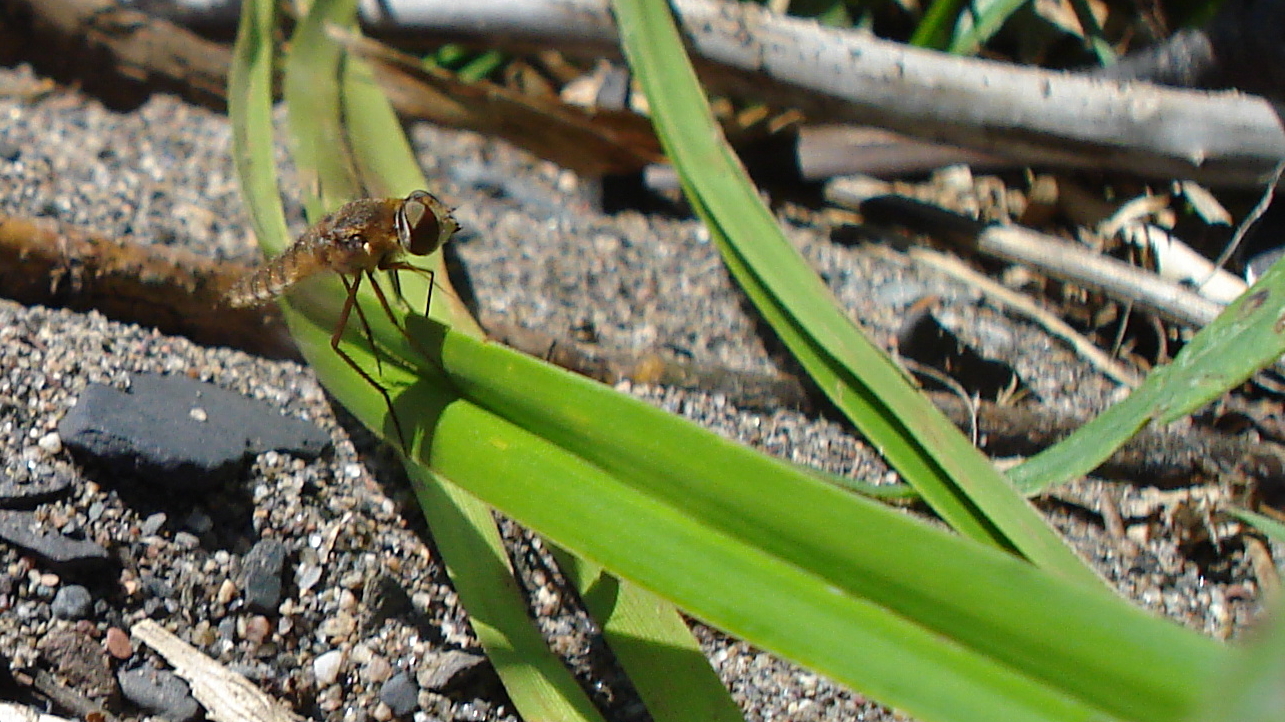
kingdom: Animalia
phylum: Arthropoda
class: Insecta
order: Diptera
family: Bombyliidae
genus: Poecilanthrax
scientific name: Poecilanthrax
